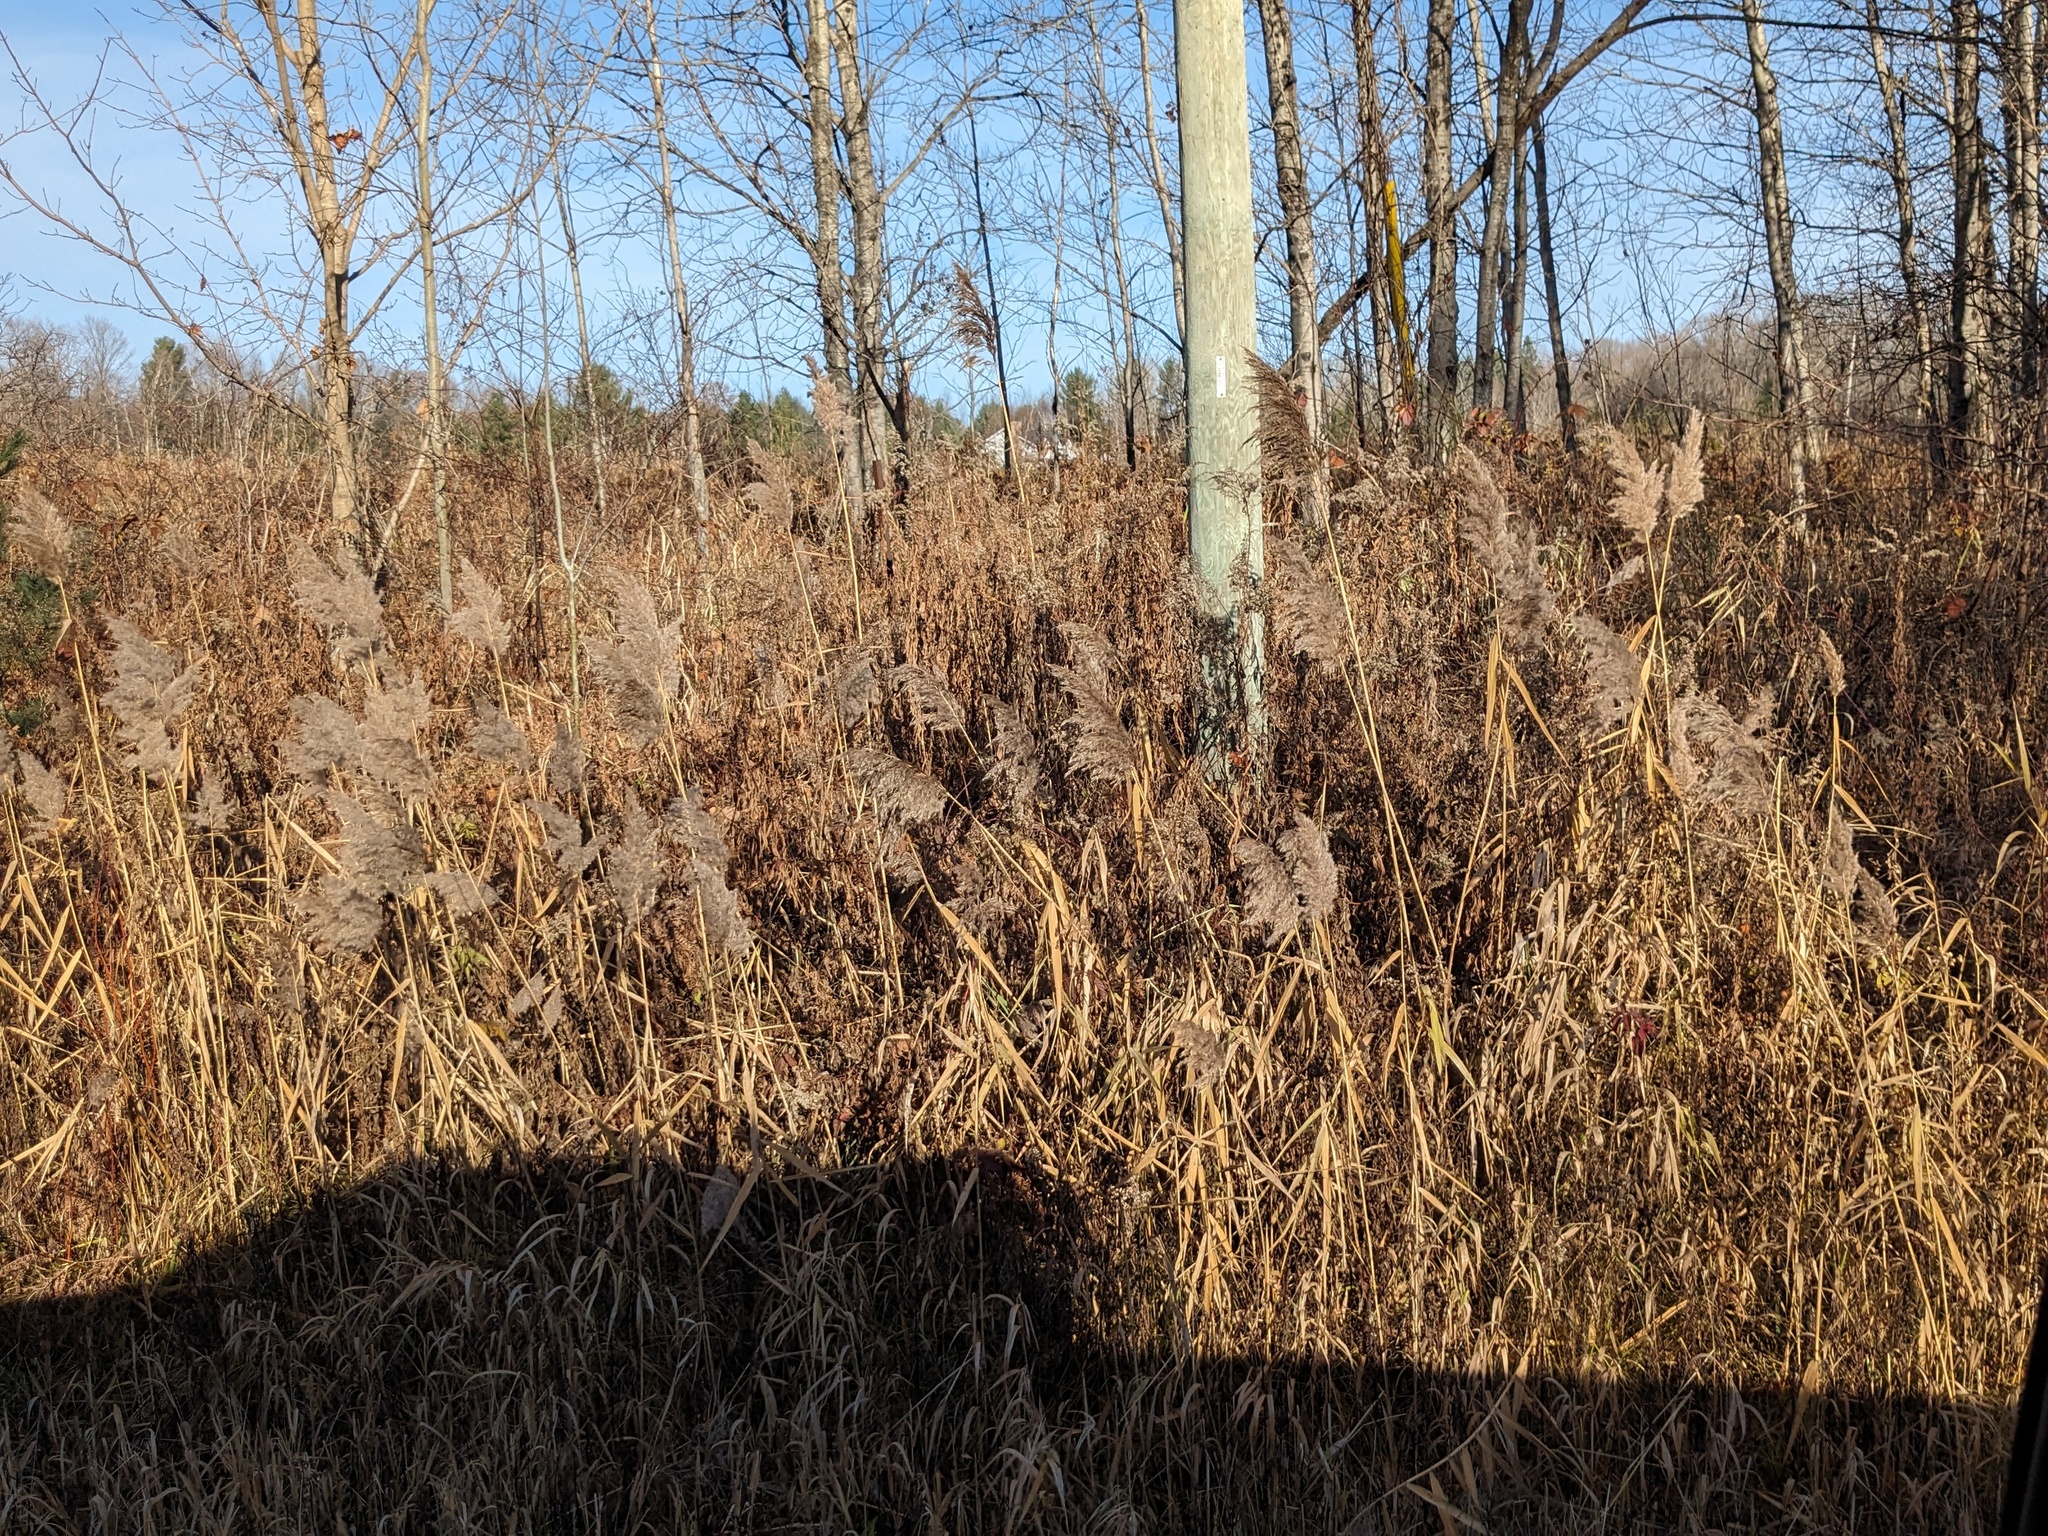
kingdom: Plantae
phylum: Tracheophyta
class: Liliopsida
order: Poales
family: Poaceae
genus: Phragmites
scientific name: Phragmites australis
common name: Common reed
